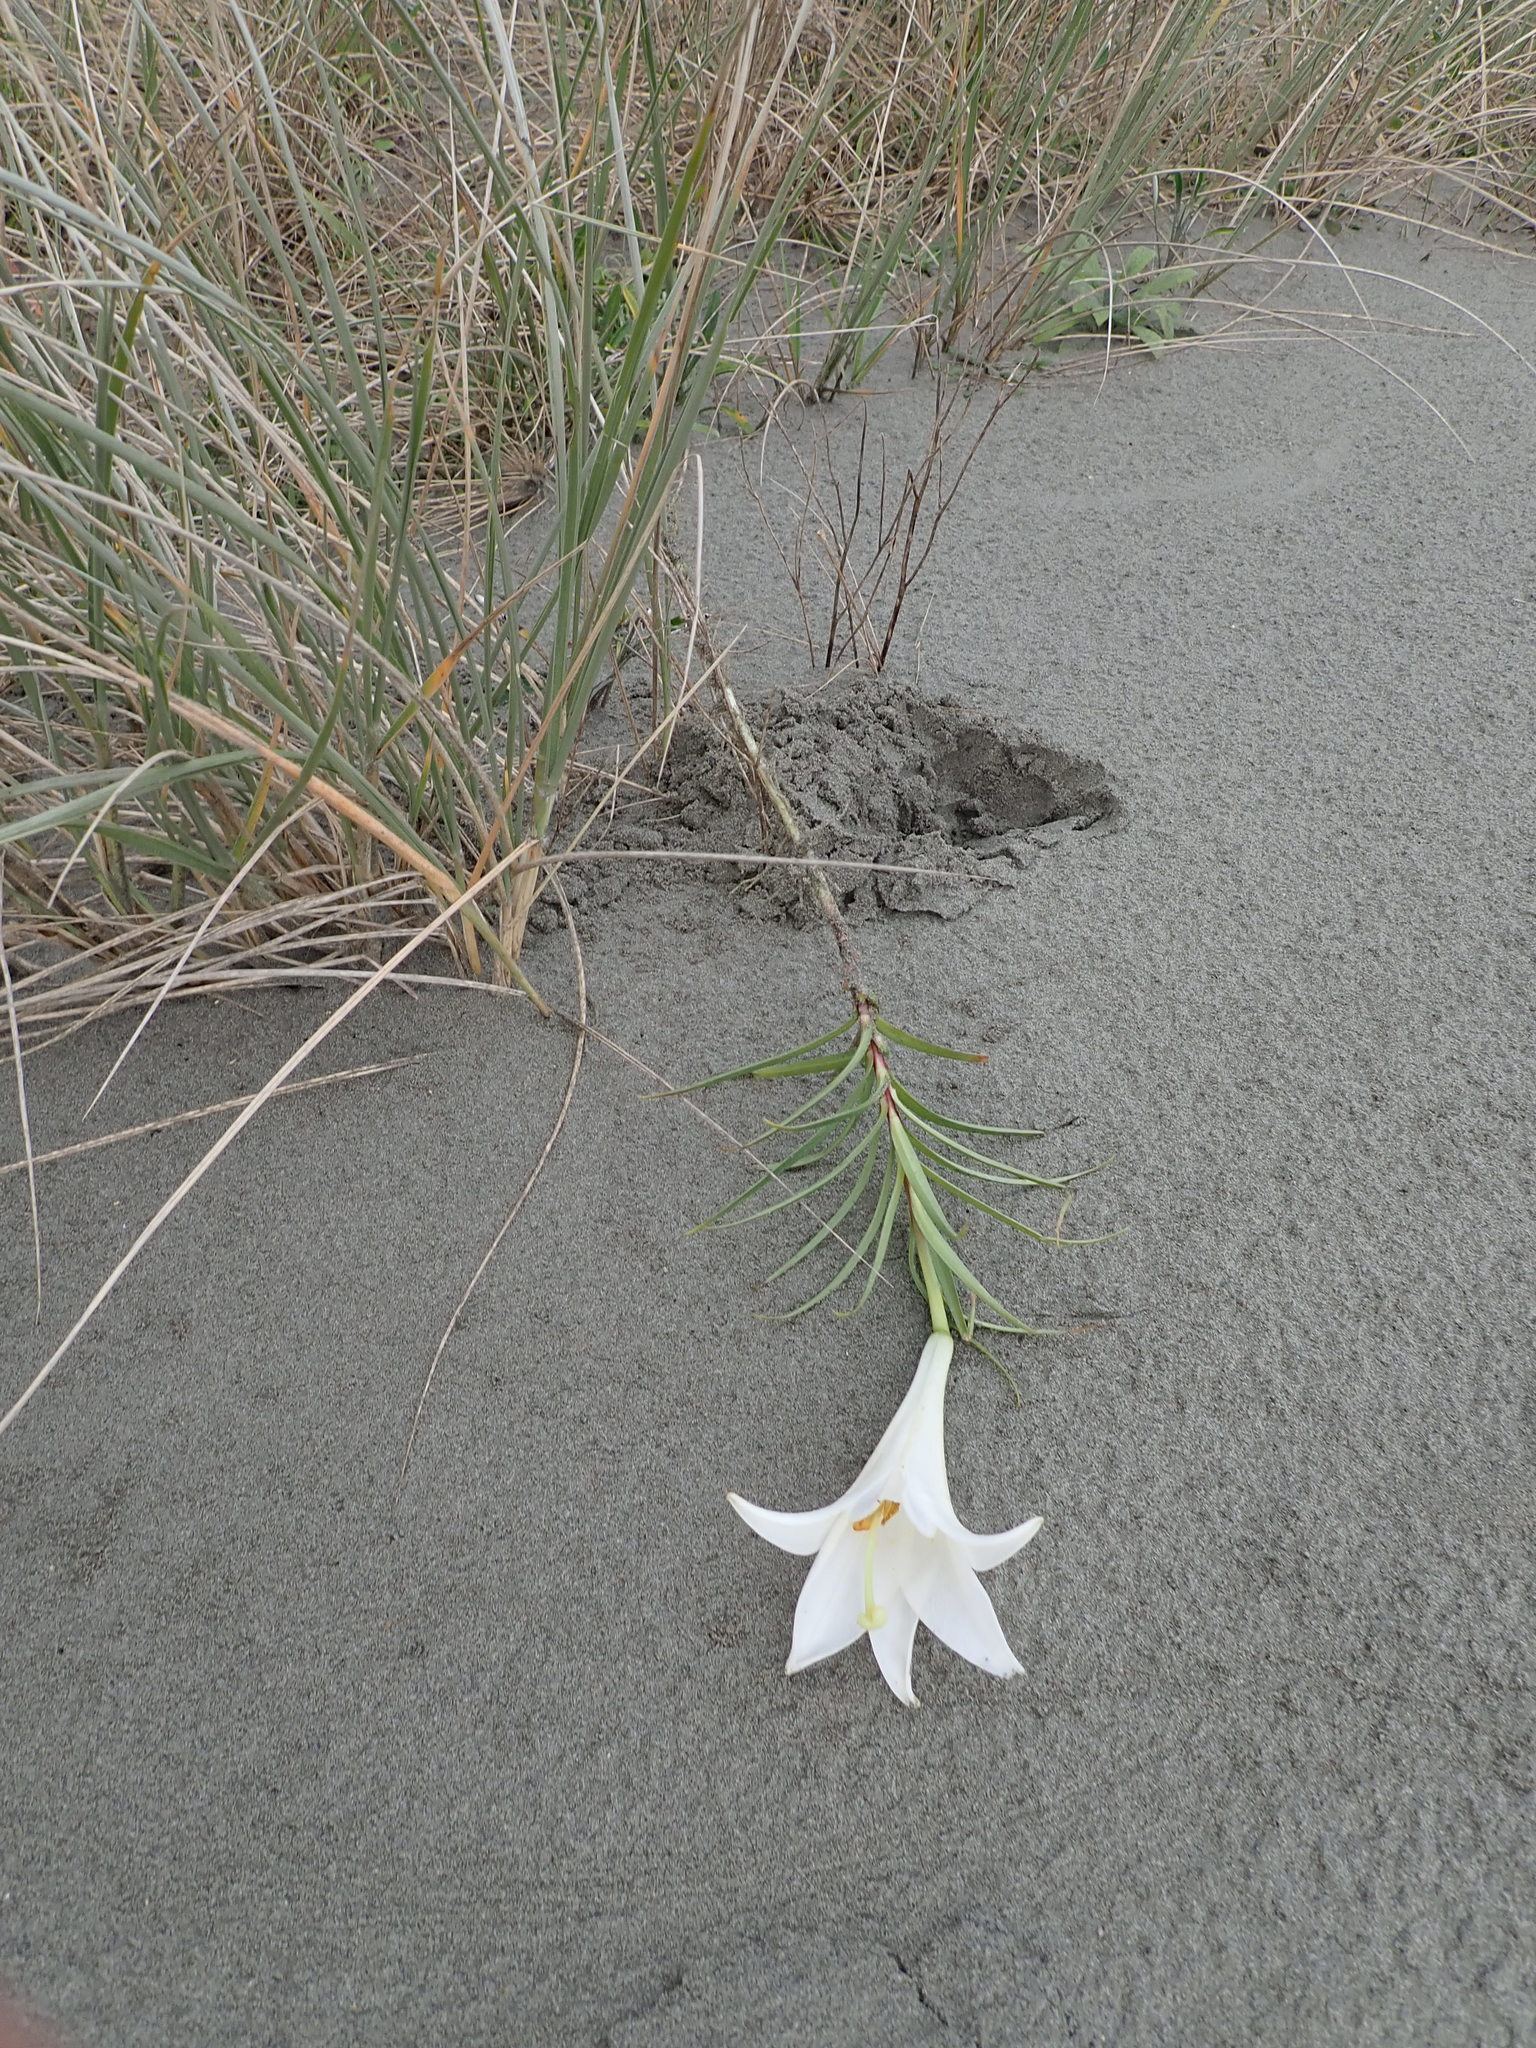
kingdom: Plantae
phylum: Tracheophyta
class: Liliopsida
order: Liliales
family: Liliaceae
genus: Lilium
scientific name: Lilium formosanum
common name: Formosa lily
